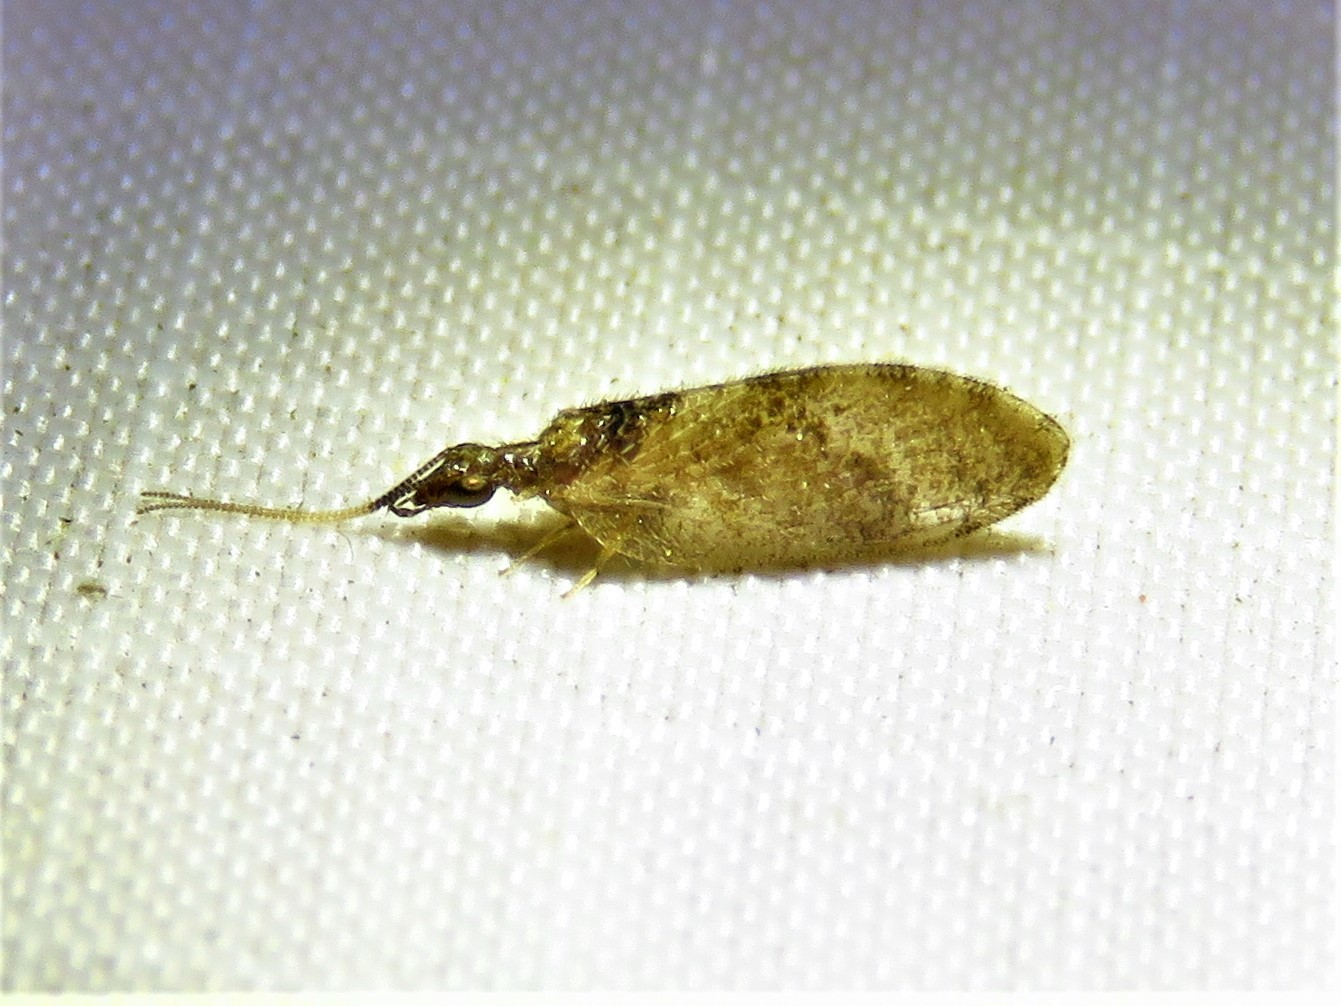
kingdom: Animalia
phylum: Arthropoda
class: Insecta
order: Neuroptera
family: Hemerobiidae
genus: Sympherobius
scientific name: Sympherobius barberi
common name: Brown lacewing
